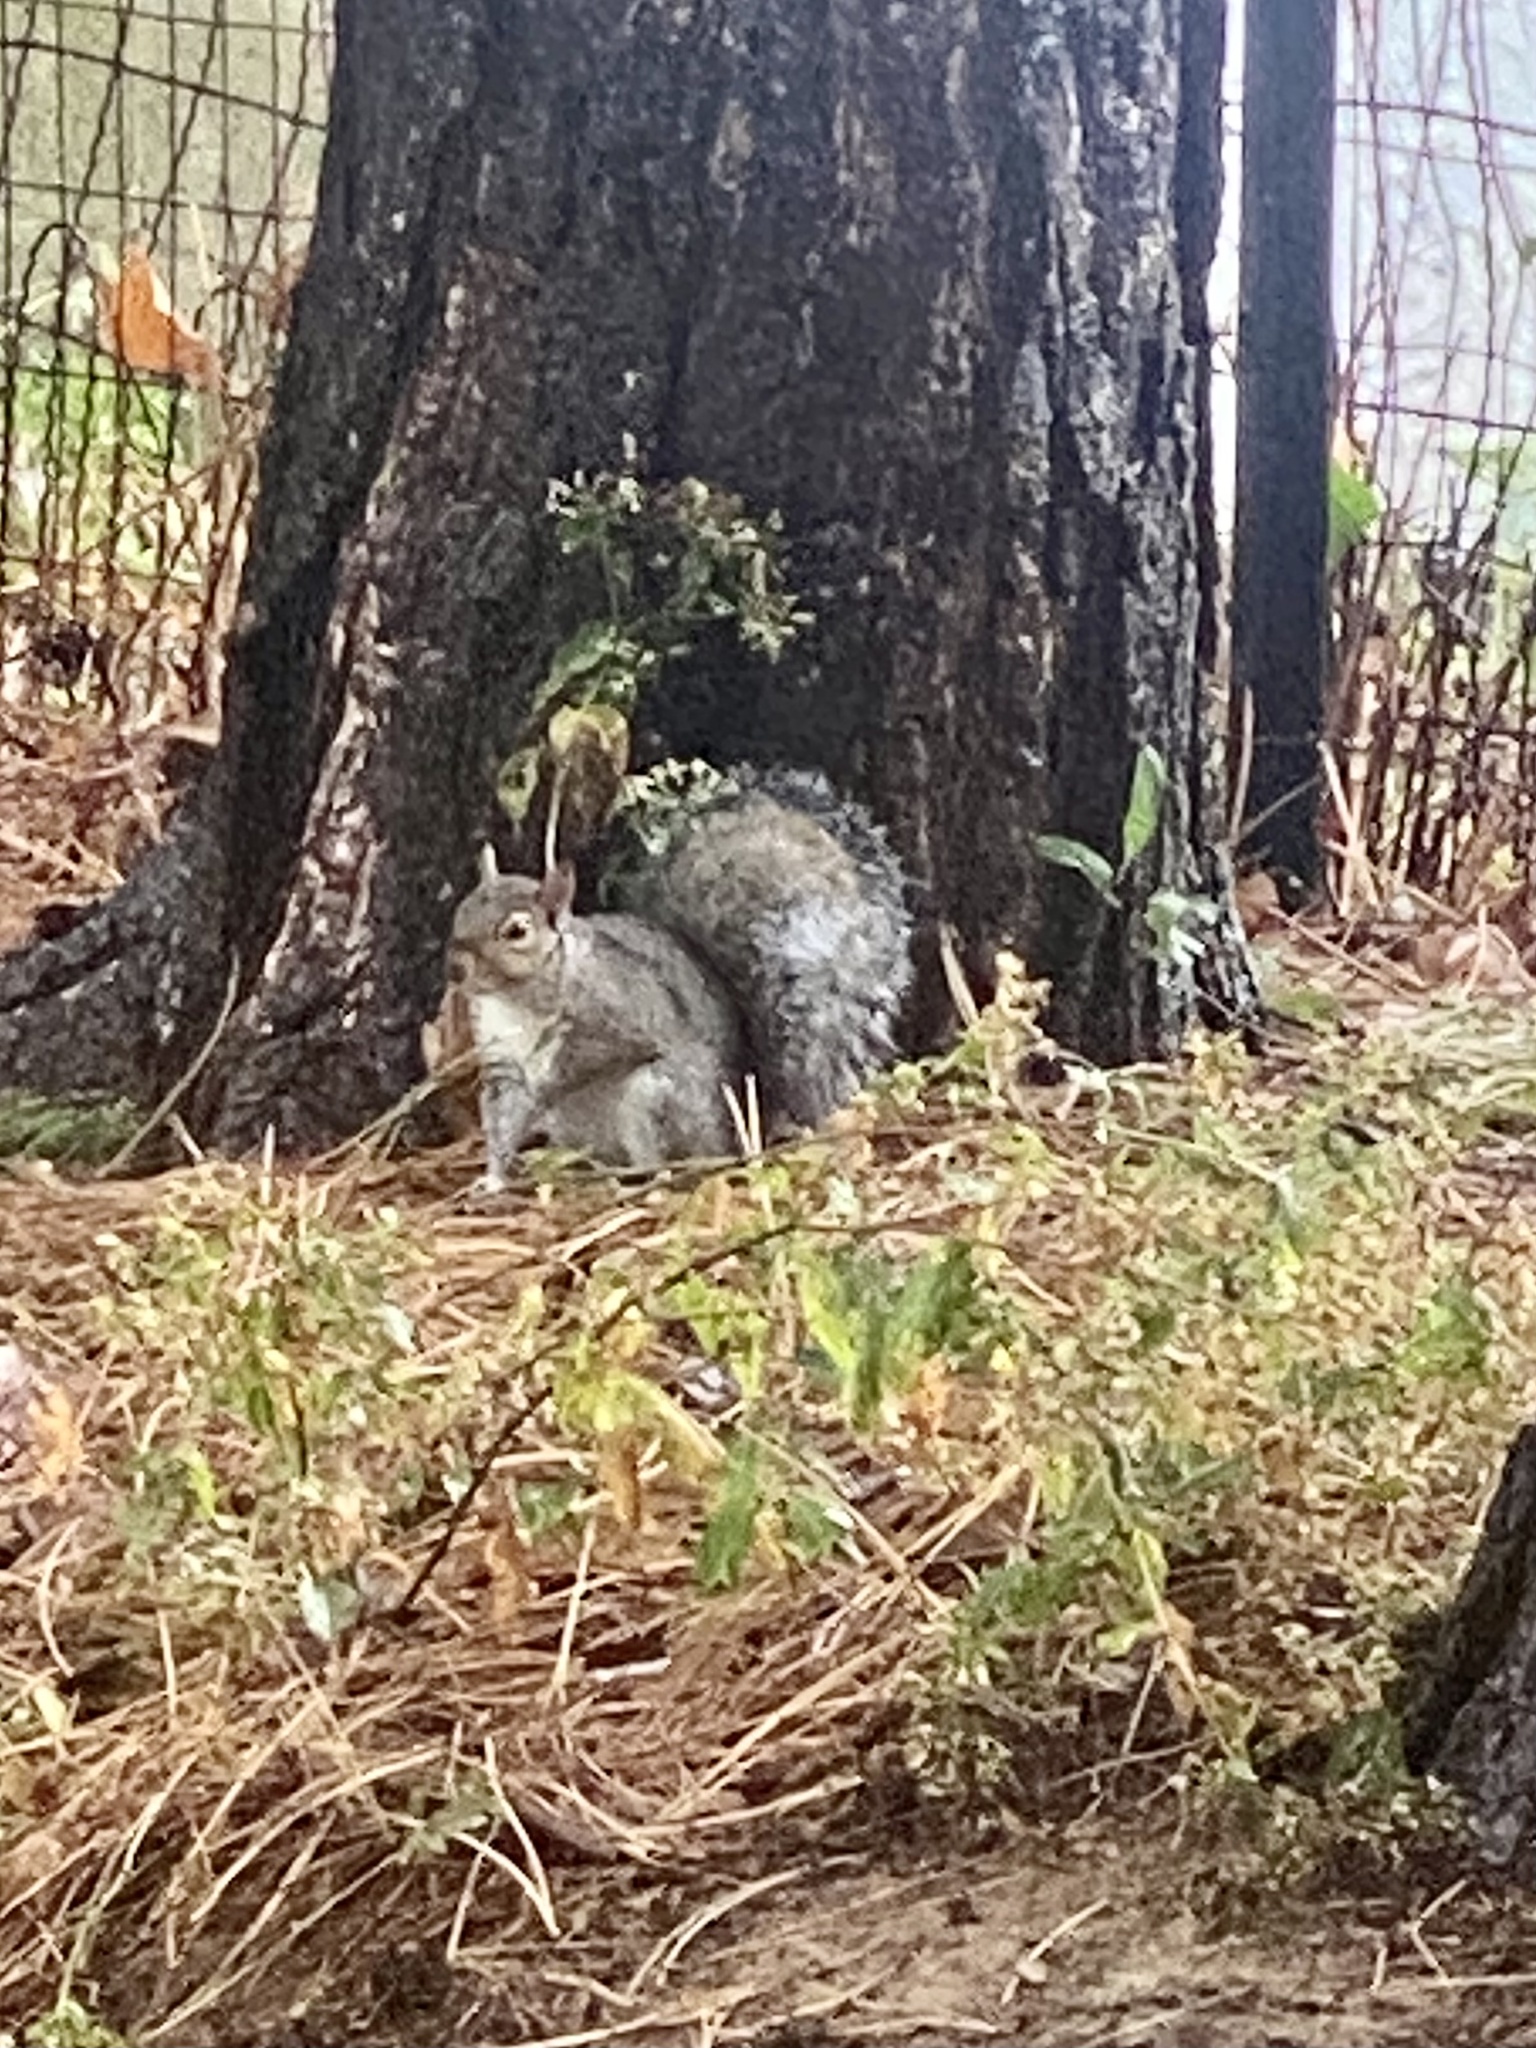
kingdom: Animalia
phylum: Chordata
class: Mammalia
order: Rodentia
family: Sciuridae
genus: Sciurus
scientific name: Sciurus carolinensis
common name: Eastern gray squirrel
